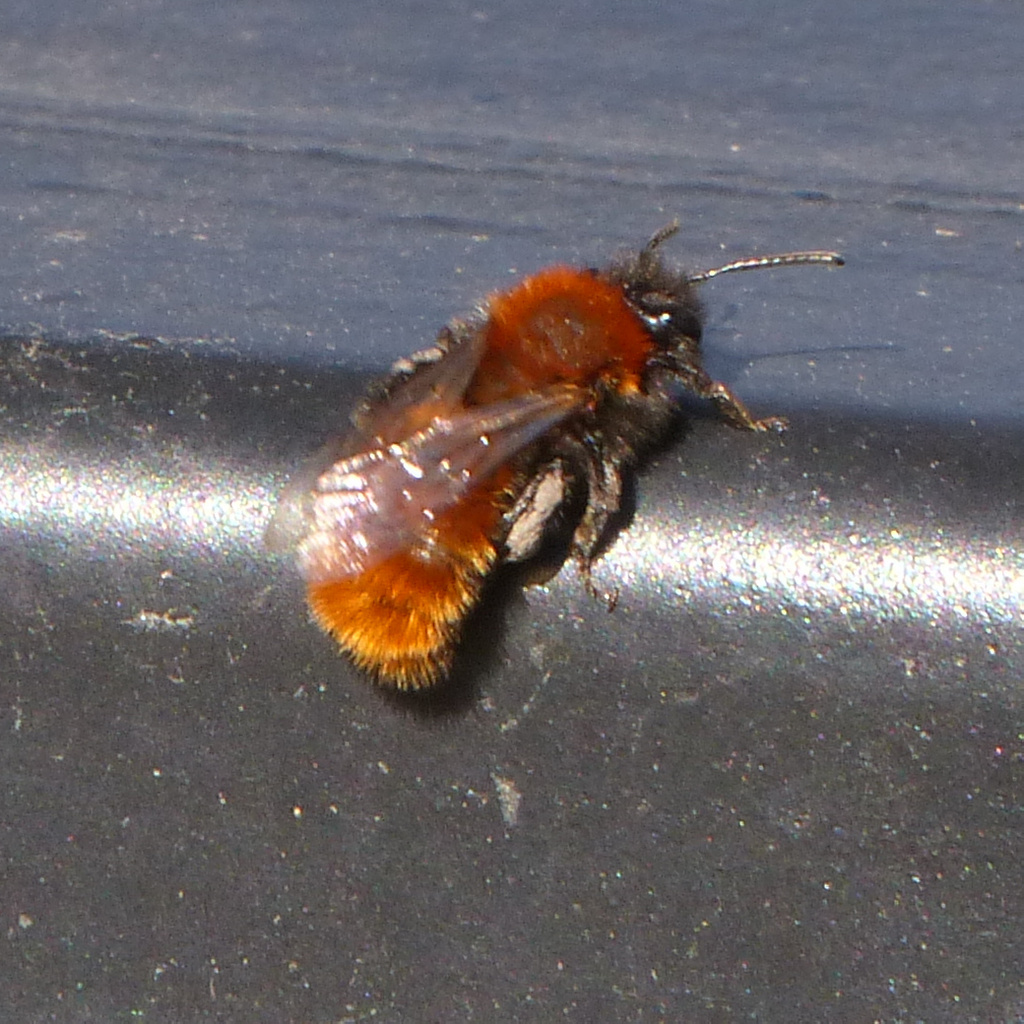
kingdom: Animalia
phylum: Arthropoda
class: Insecta
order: Hymenoptera
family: Andrenidae
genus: Andrena
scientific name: Andrena fulva
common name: Tawny mining bee
